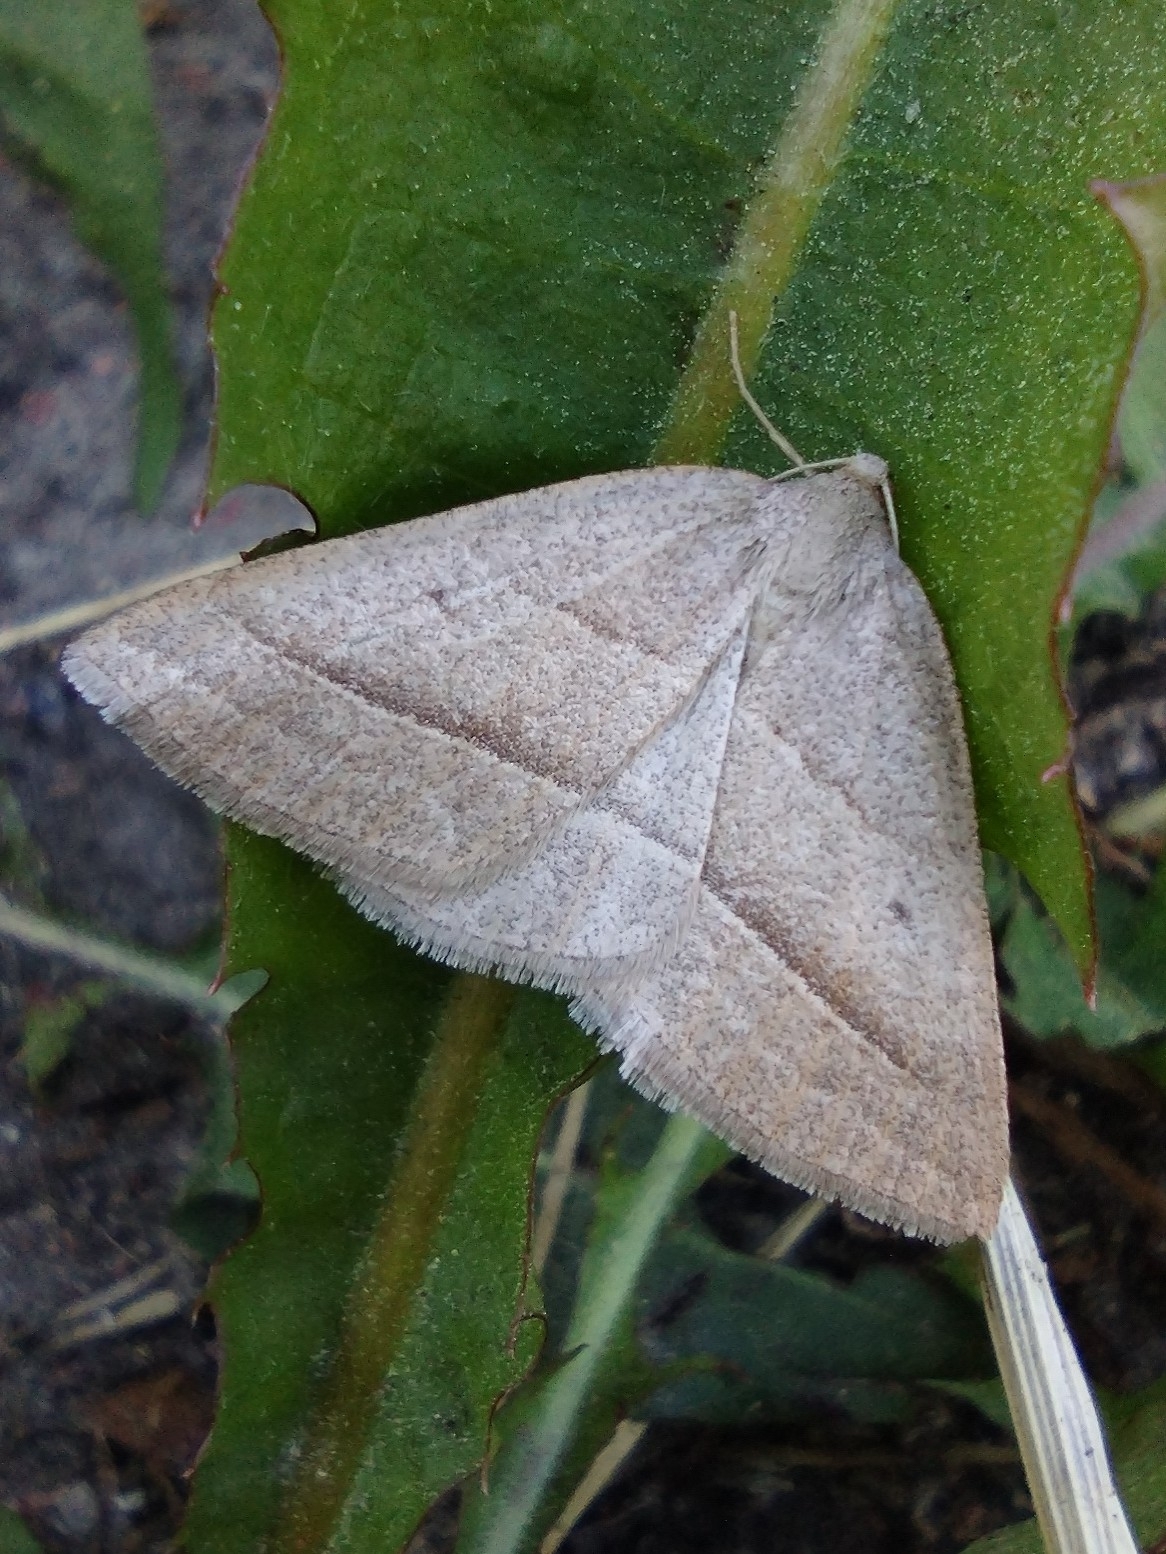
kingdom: Animalia
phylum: Arthropoda
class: Insecta
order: Lepidoptera
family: Pterophoridae
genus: Pterophorus
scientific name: Pterophorus Petrophora chlorosata
